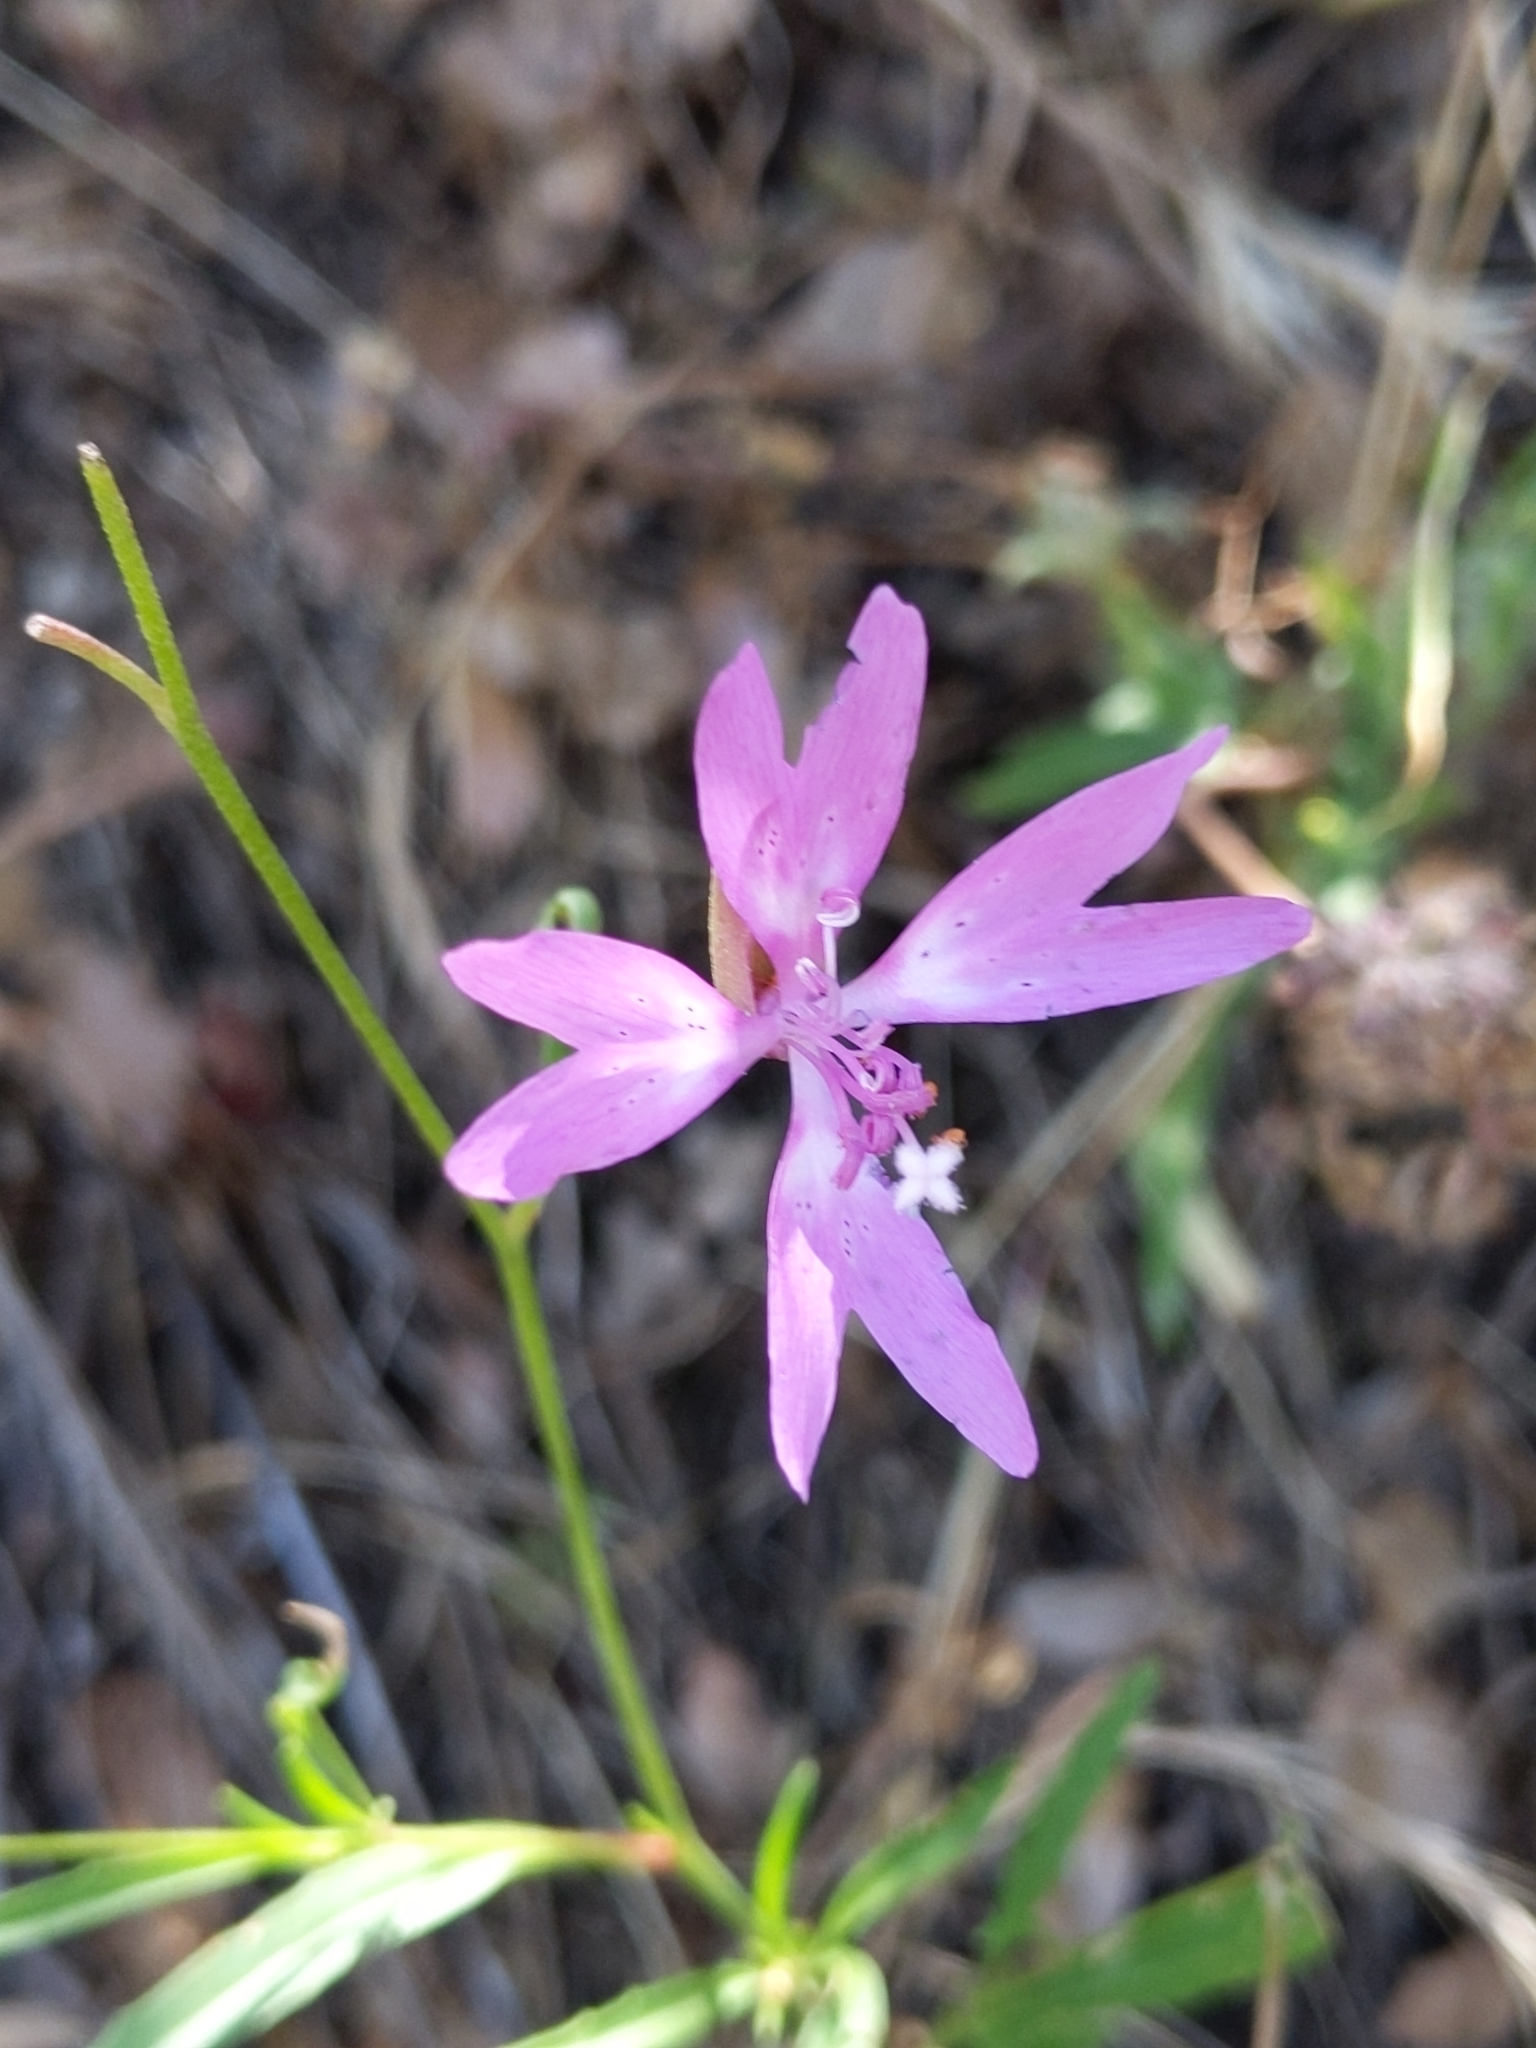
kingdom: Plantae
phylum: Tracheophyta
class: Magnoliopsida
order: Myrtales
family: Onagraceae
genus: Clarkia
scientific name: Clarkia biloba
